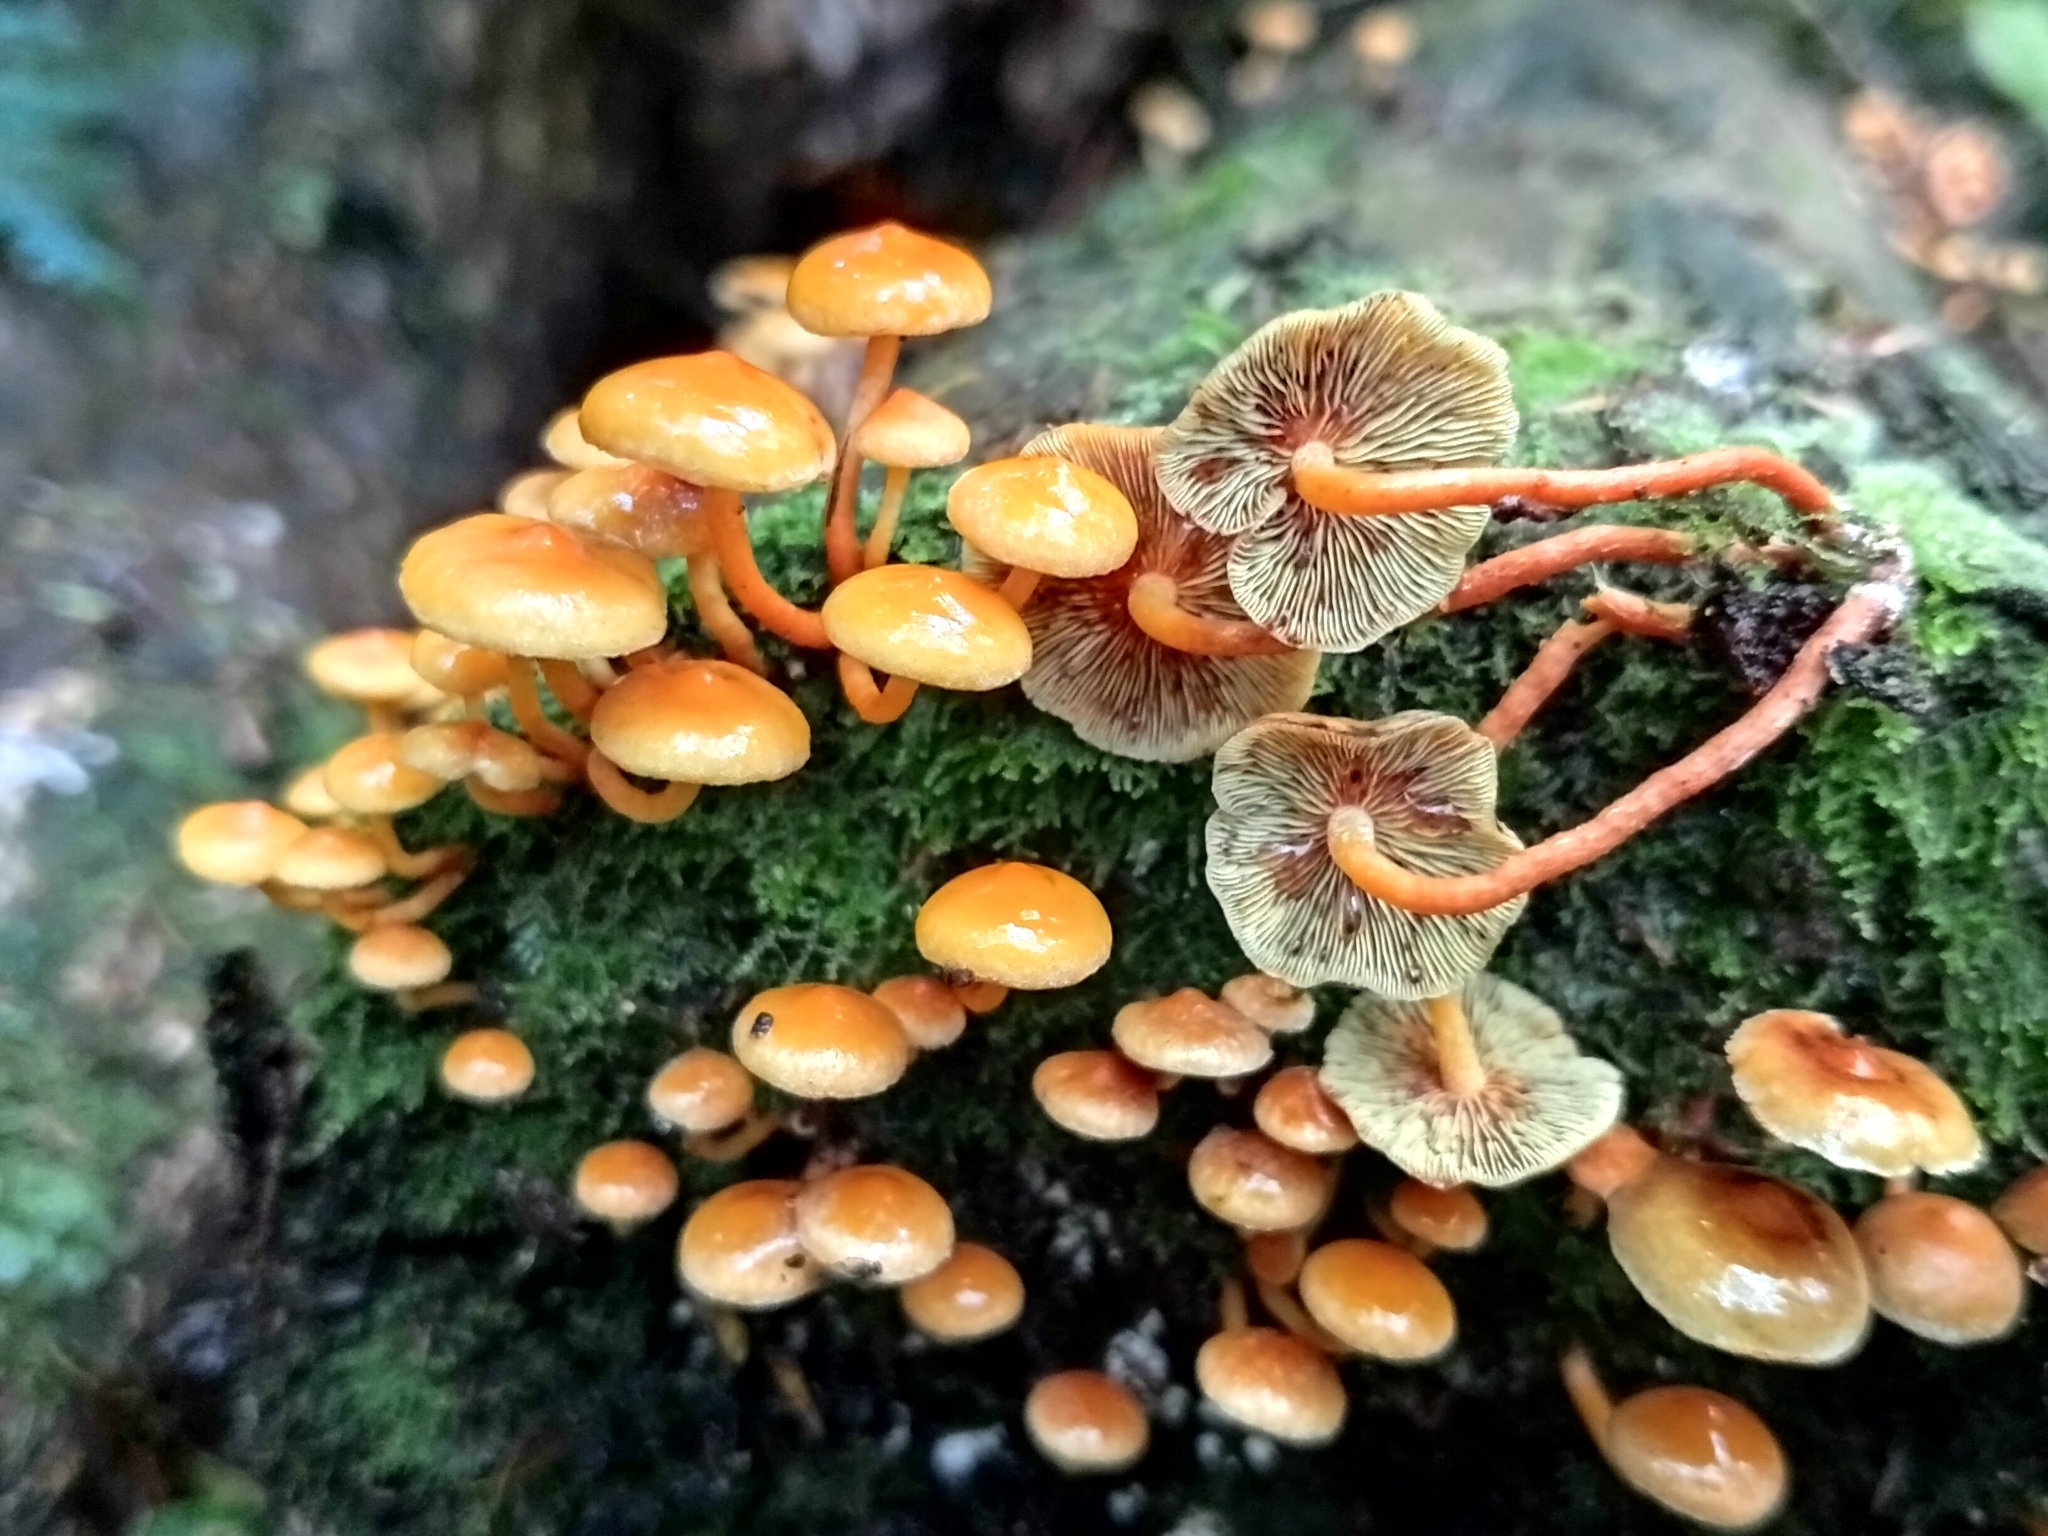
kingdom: Fungi
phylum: Basidiomycota
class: Agaricomycetes
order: Agaricales
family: Strophariaceae
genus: Hypholoma
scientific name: Hypholoma acutum
